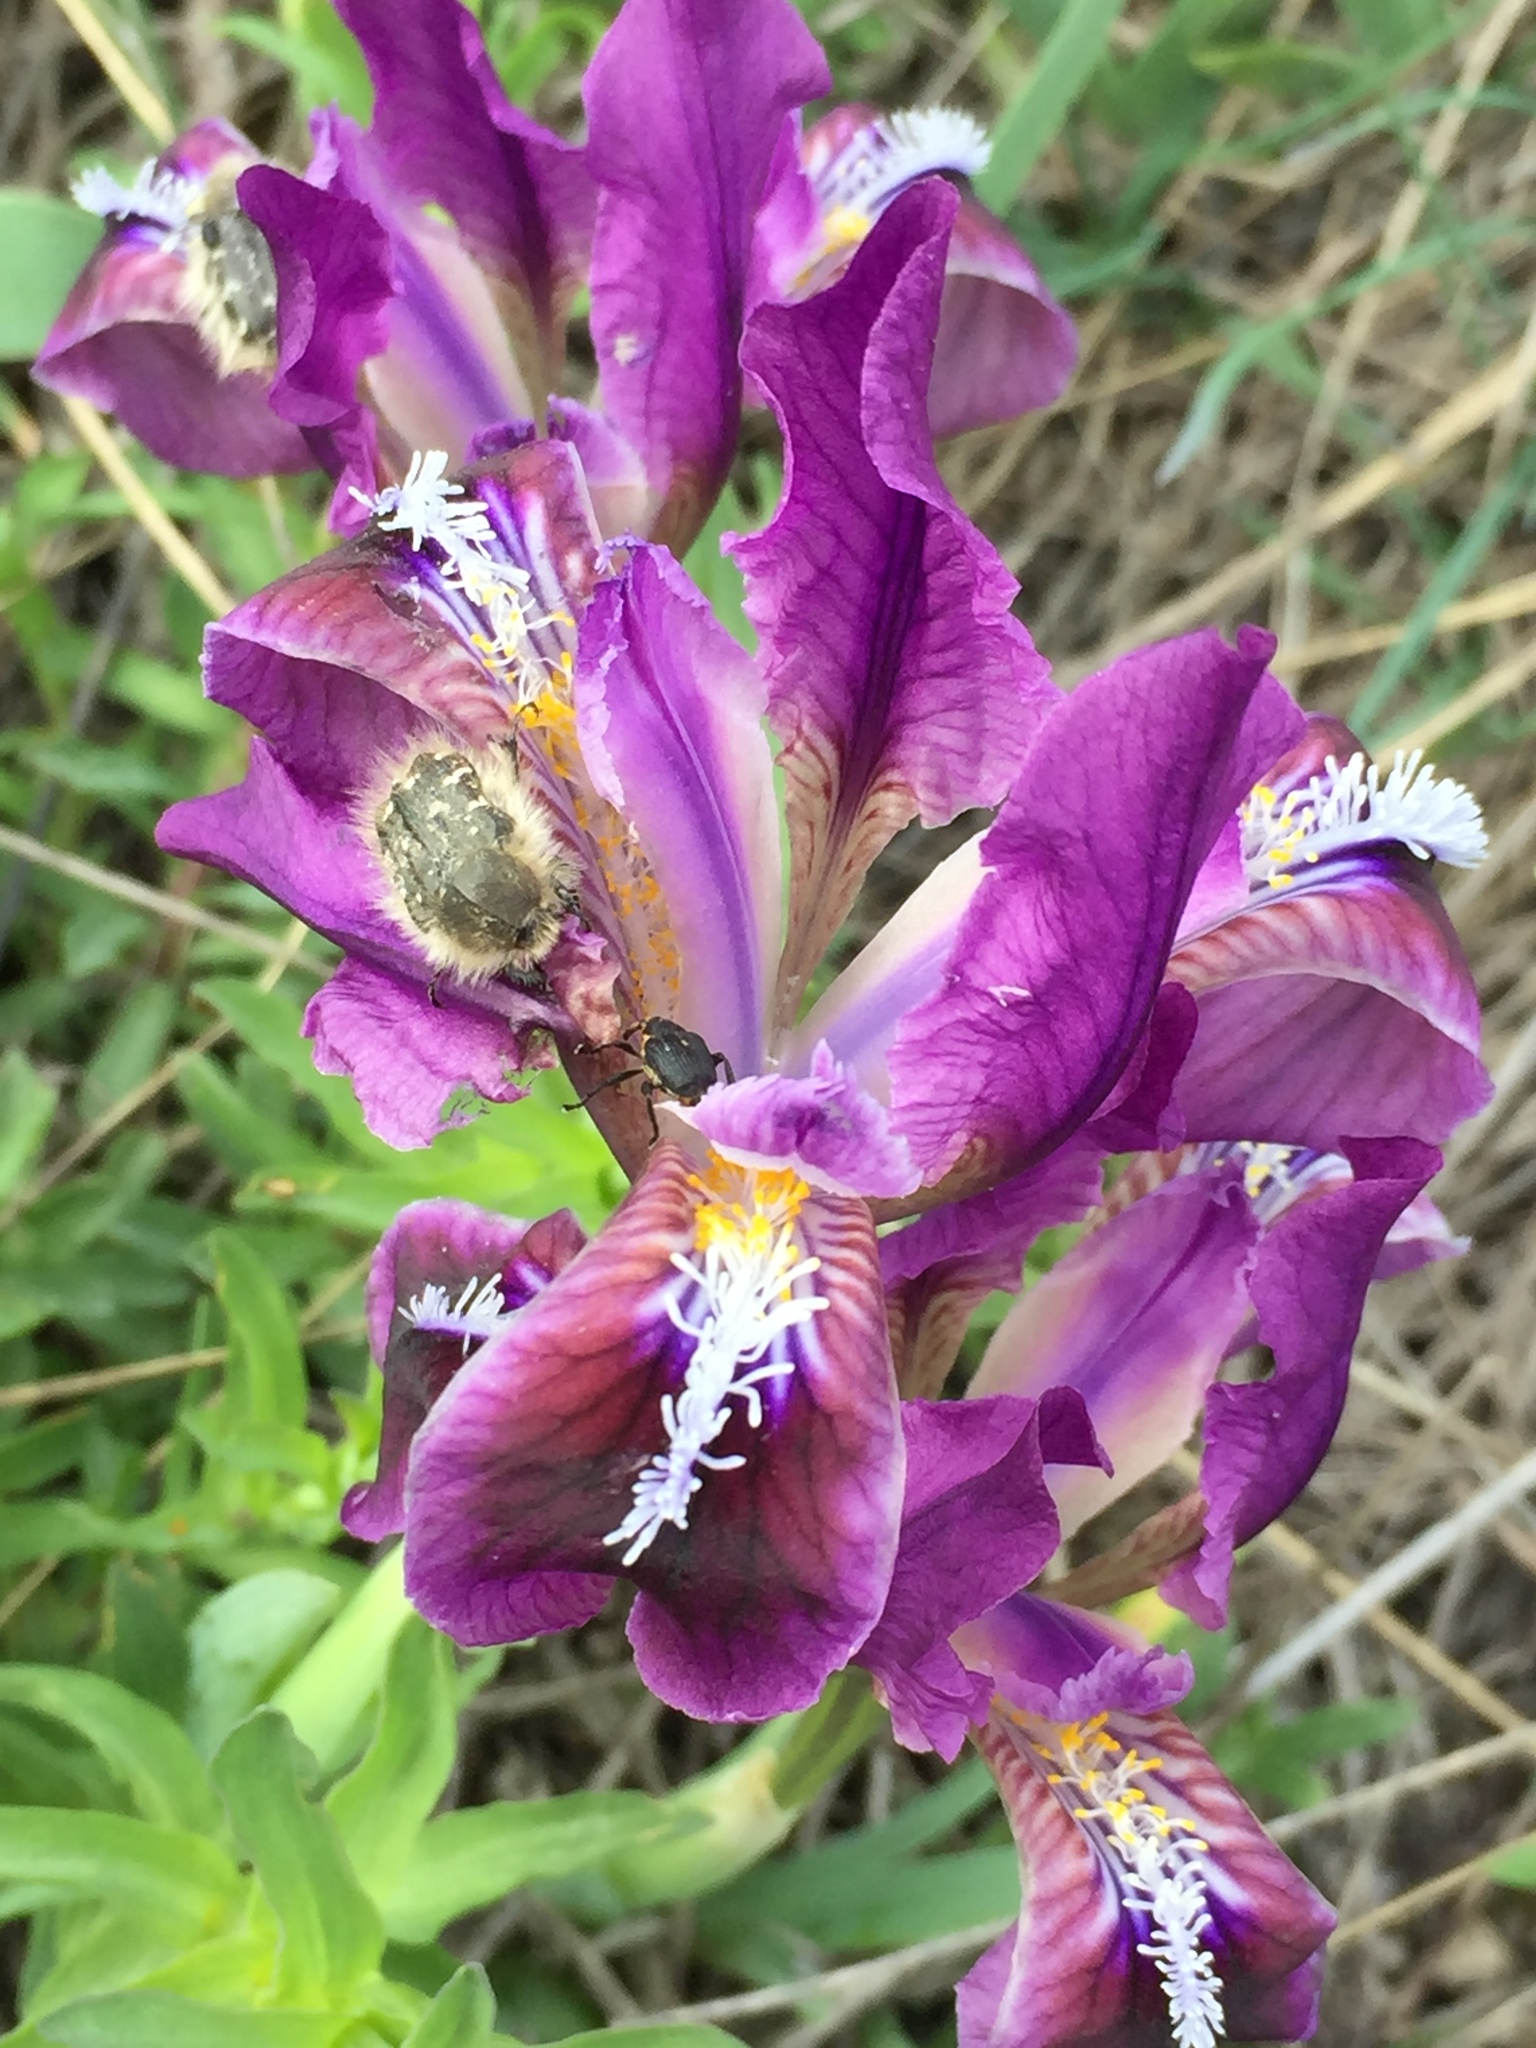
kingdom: Plantae
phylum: Tracheophyta
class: Liliopsida
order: Asparagales
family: Iridaceae
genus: Iris
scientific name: Iris pumila
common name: Dwarf iris
